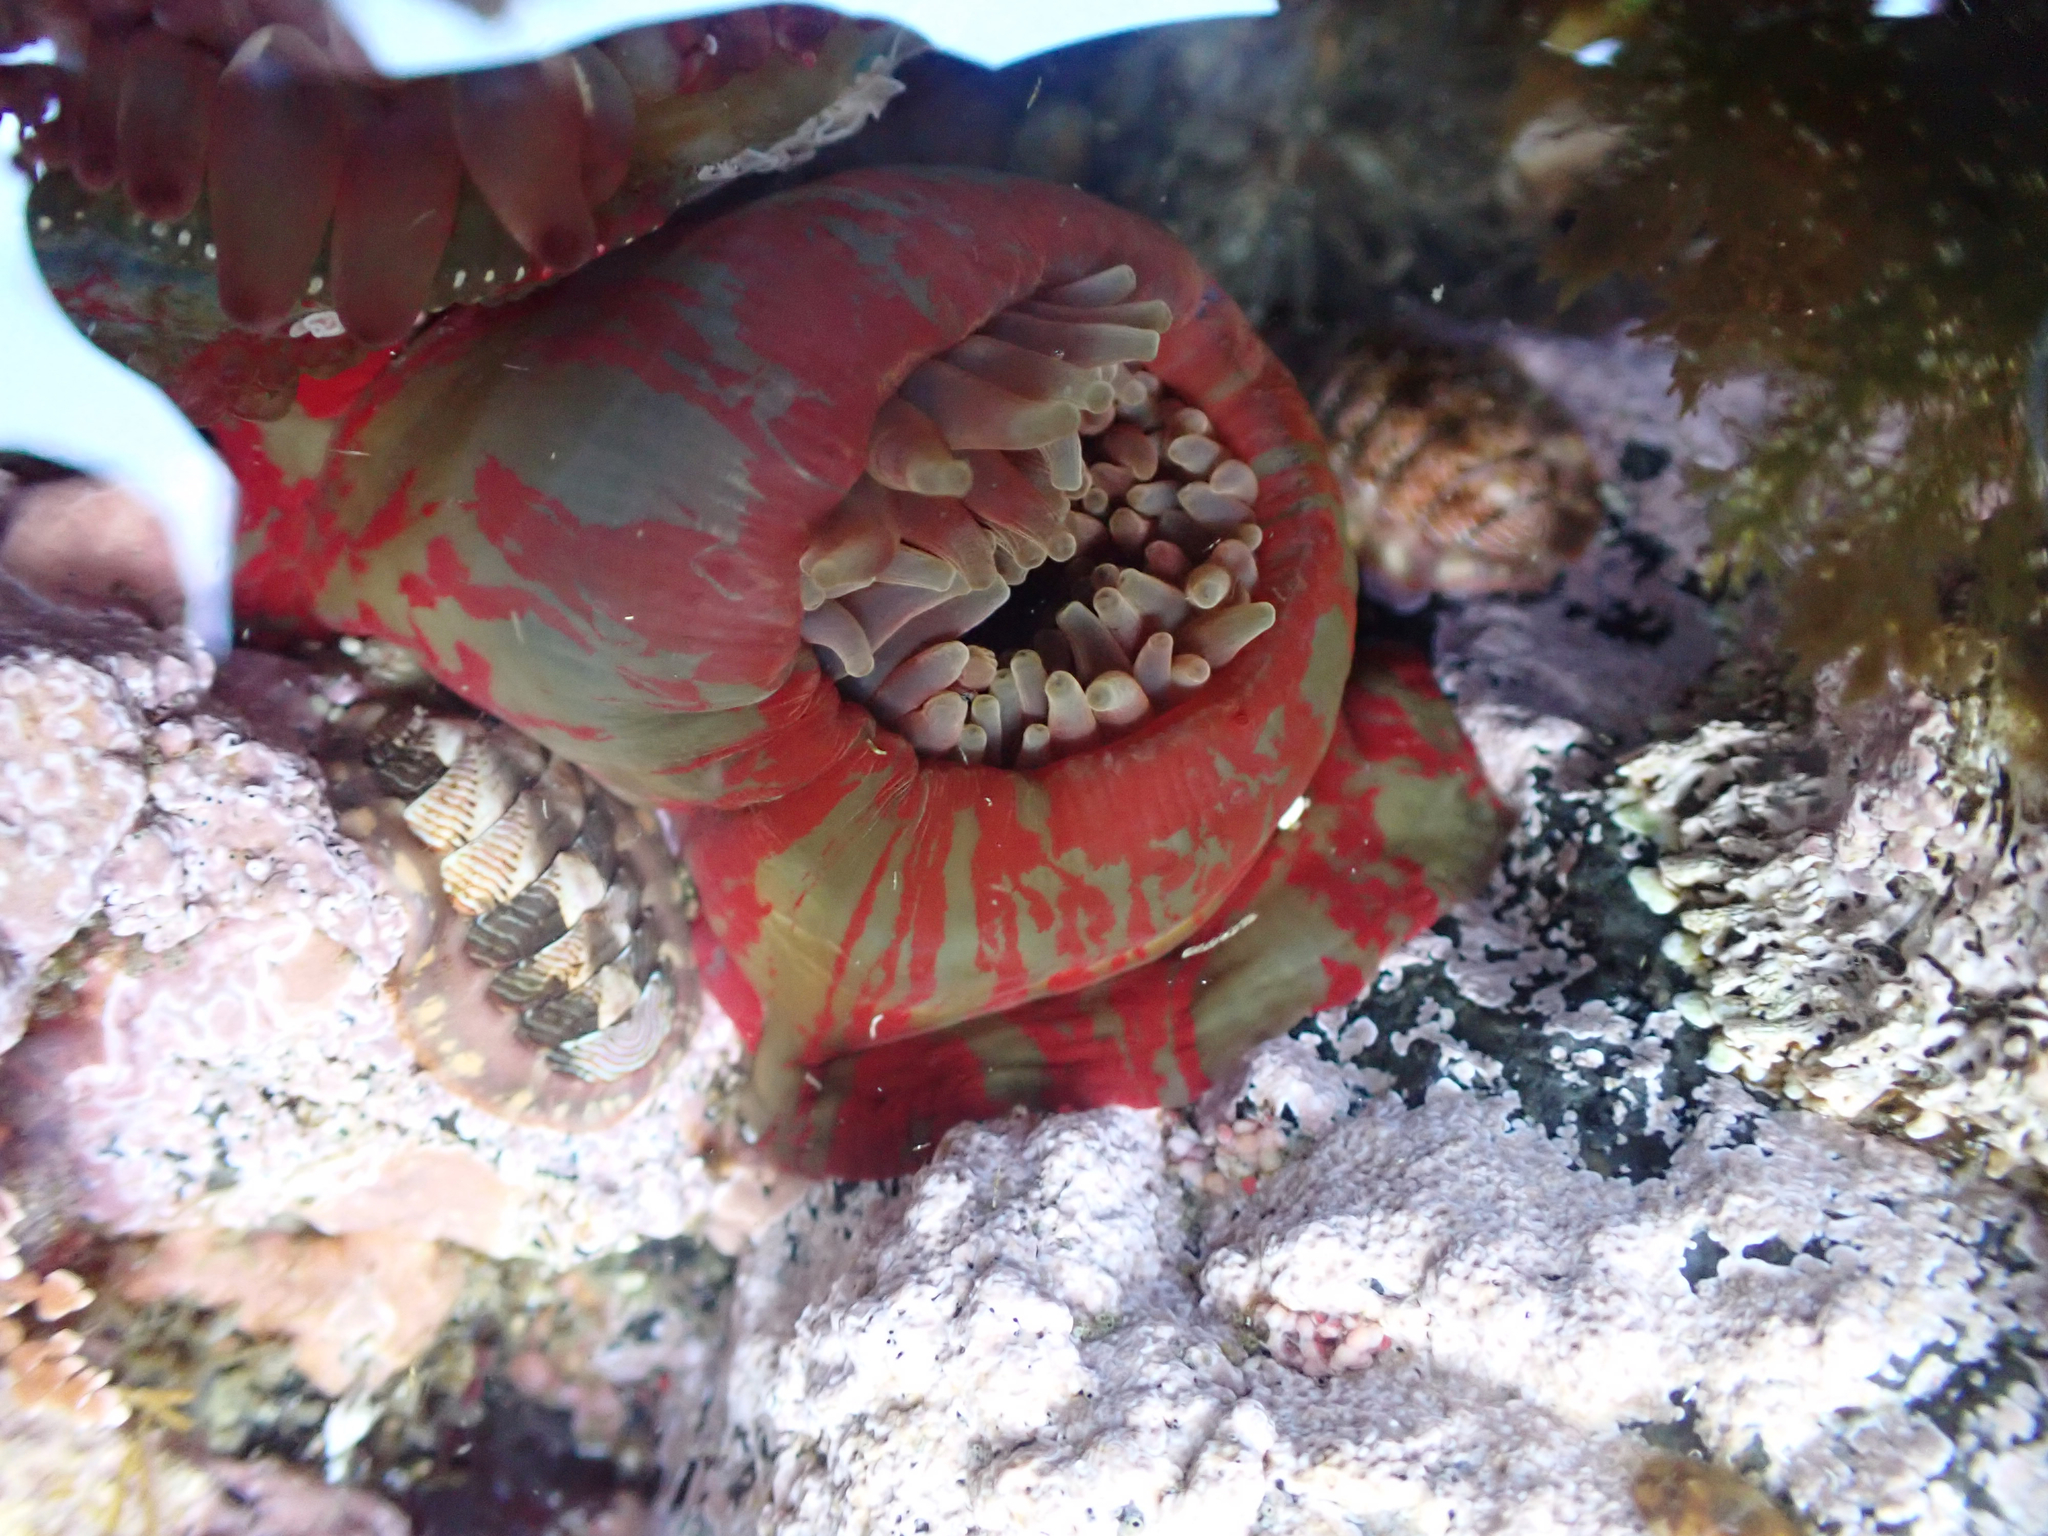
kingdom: Animalia
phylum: Cnidaria
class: Anthozoa
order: Actiniaria
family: Actiniidae
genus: Urticina
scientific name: Urticina grebelnyi
